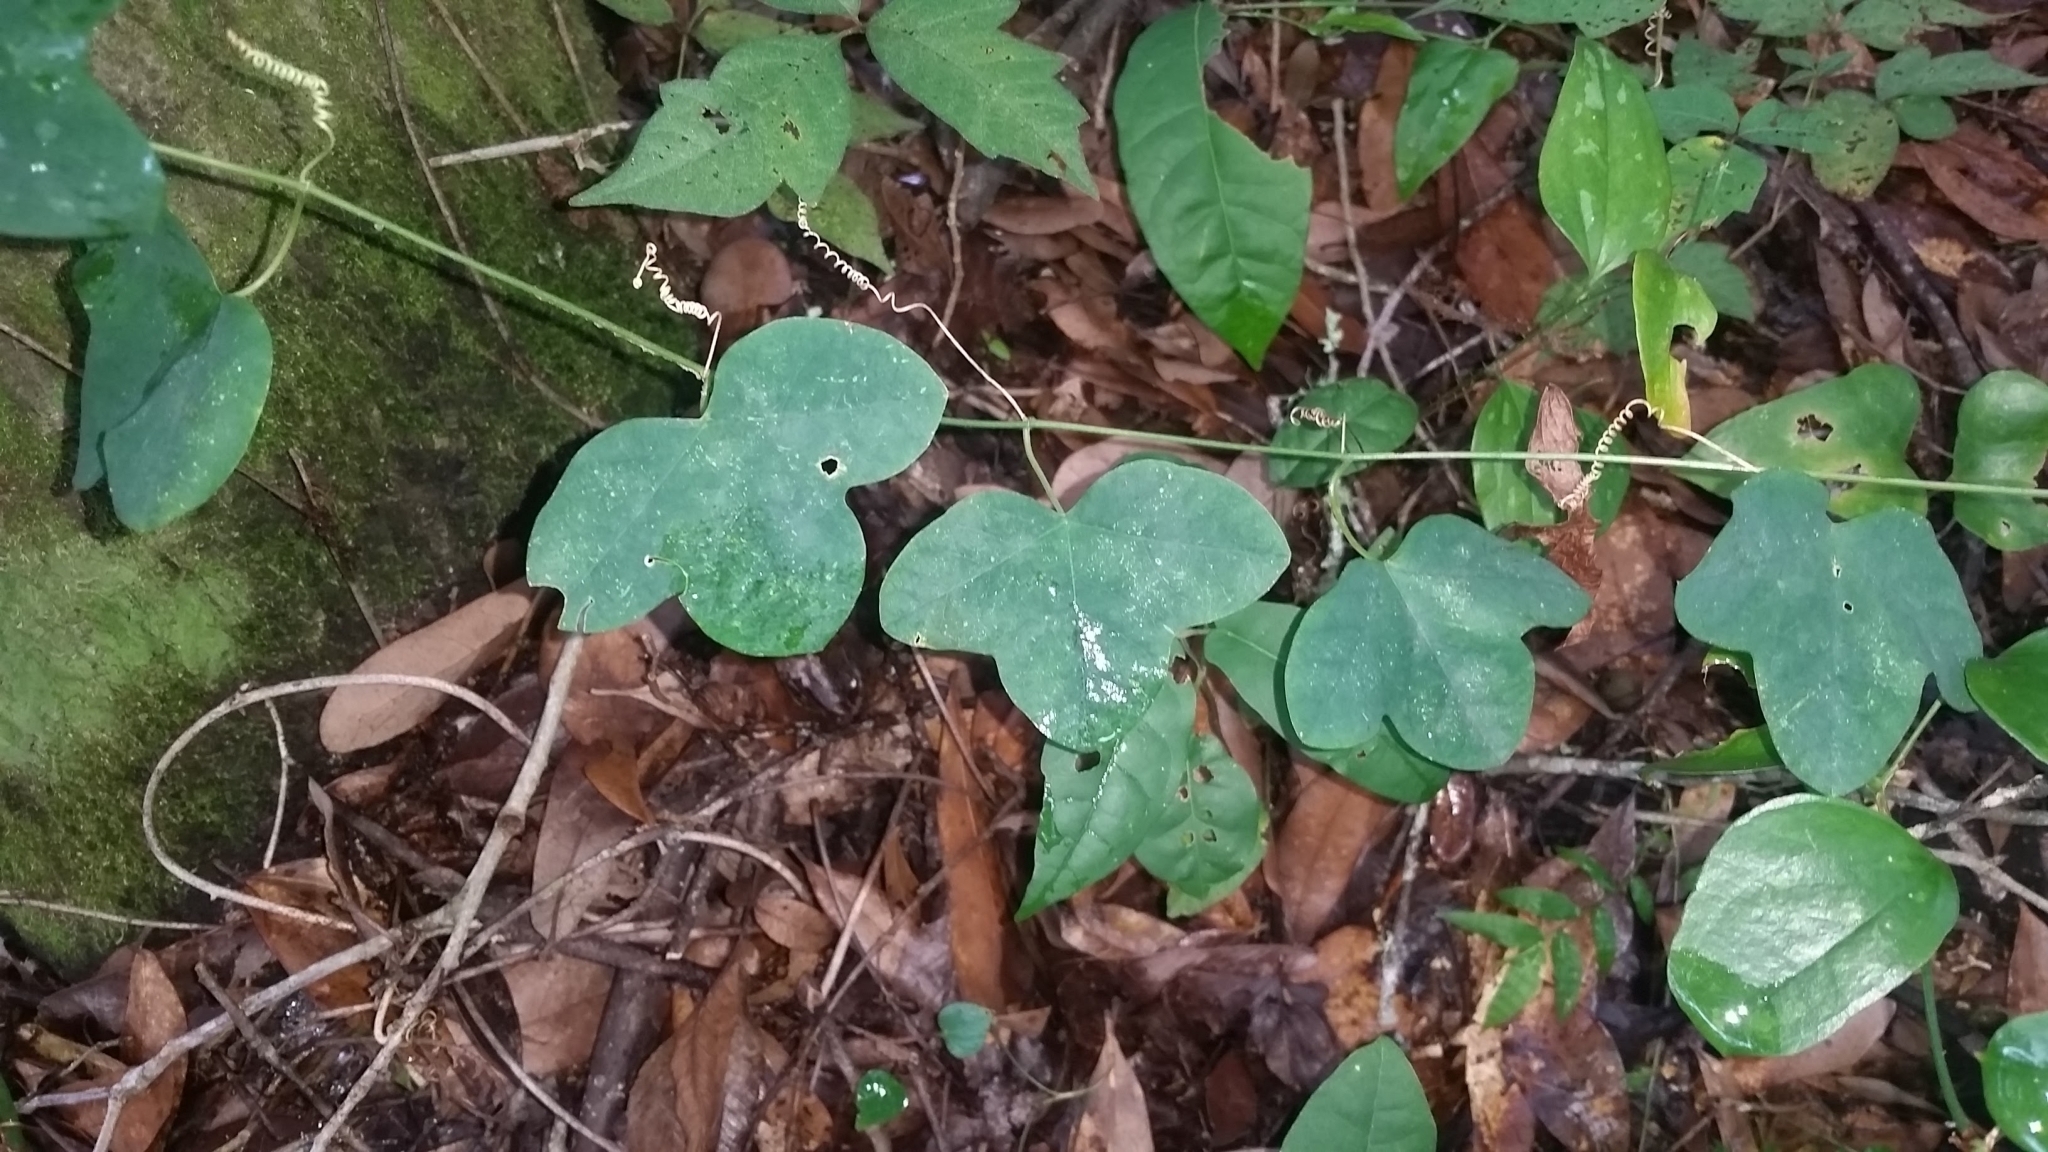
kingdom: Plantae
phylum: Tracheophyta
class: Magnoliopsida
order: Malpighiales
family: Passifloraceae
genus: Passiflora
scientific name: Passiflora lutea
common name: Yellow passionflower
